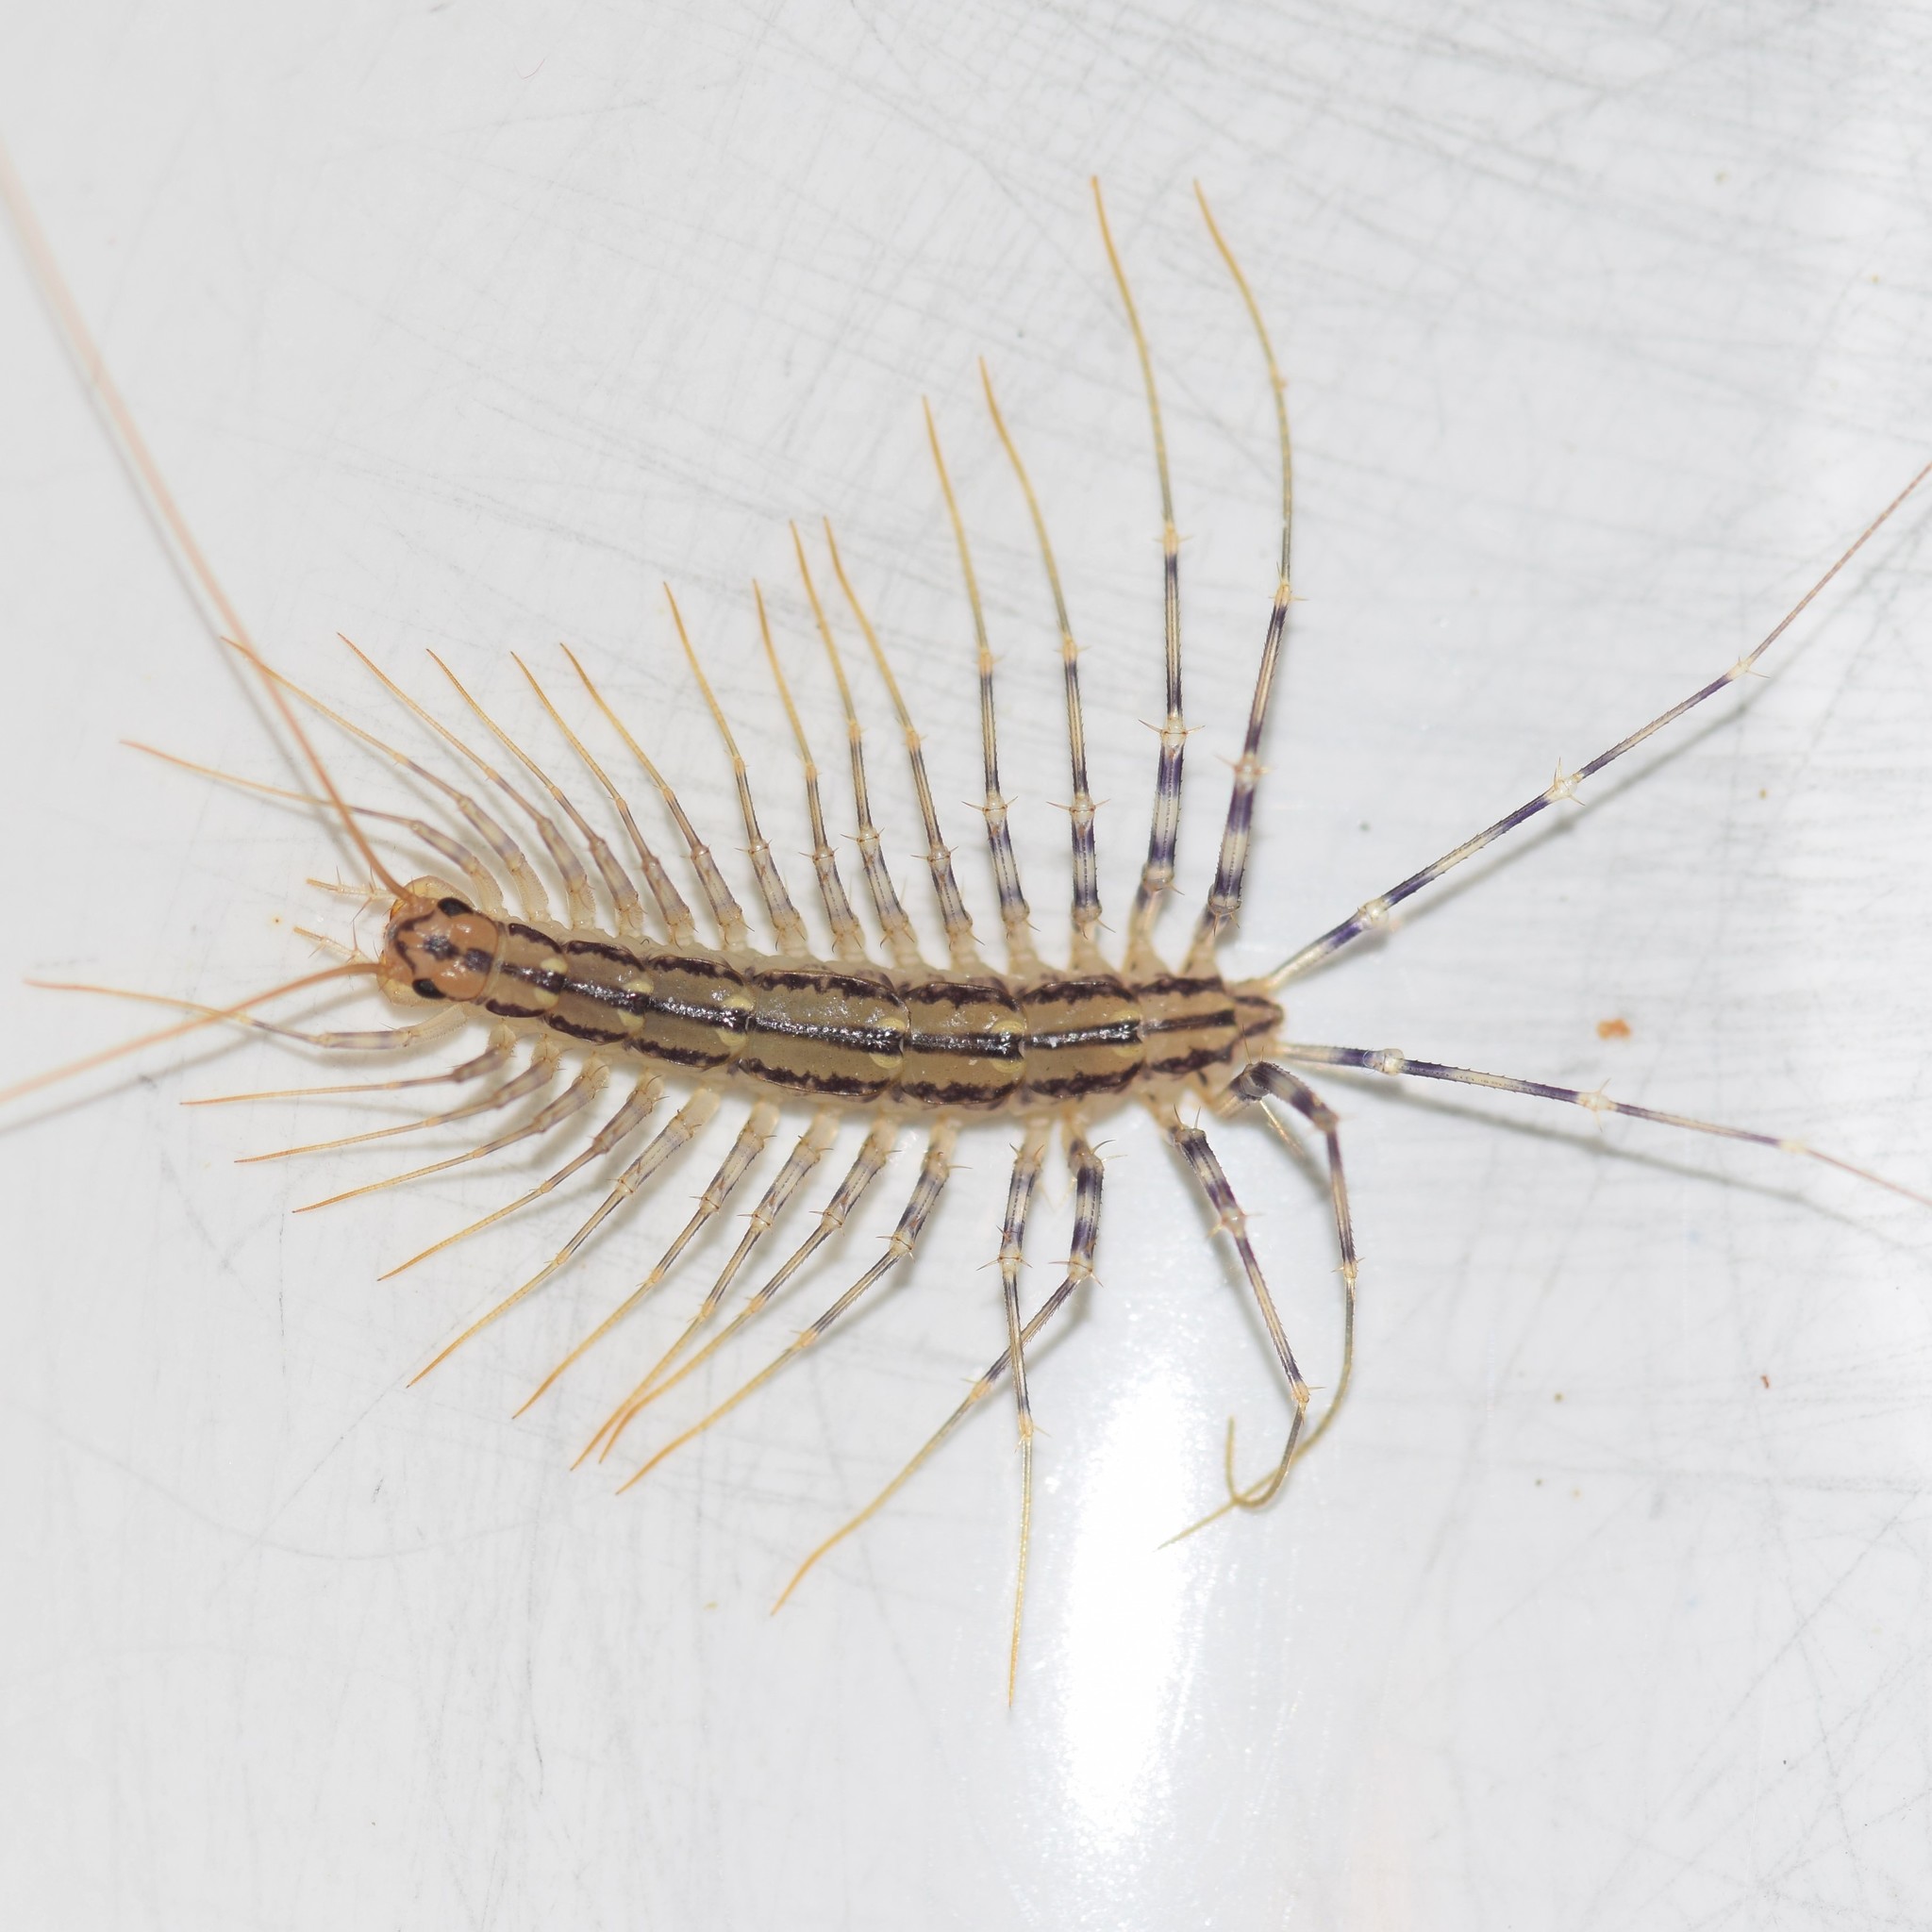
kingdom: Animalia
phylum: Arthropoda
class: Chilopoda
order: Scutigeromorpha
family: Scutigeridae
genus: Scutigera
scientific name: Scutigera coleoptrata
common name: House centipede
